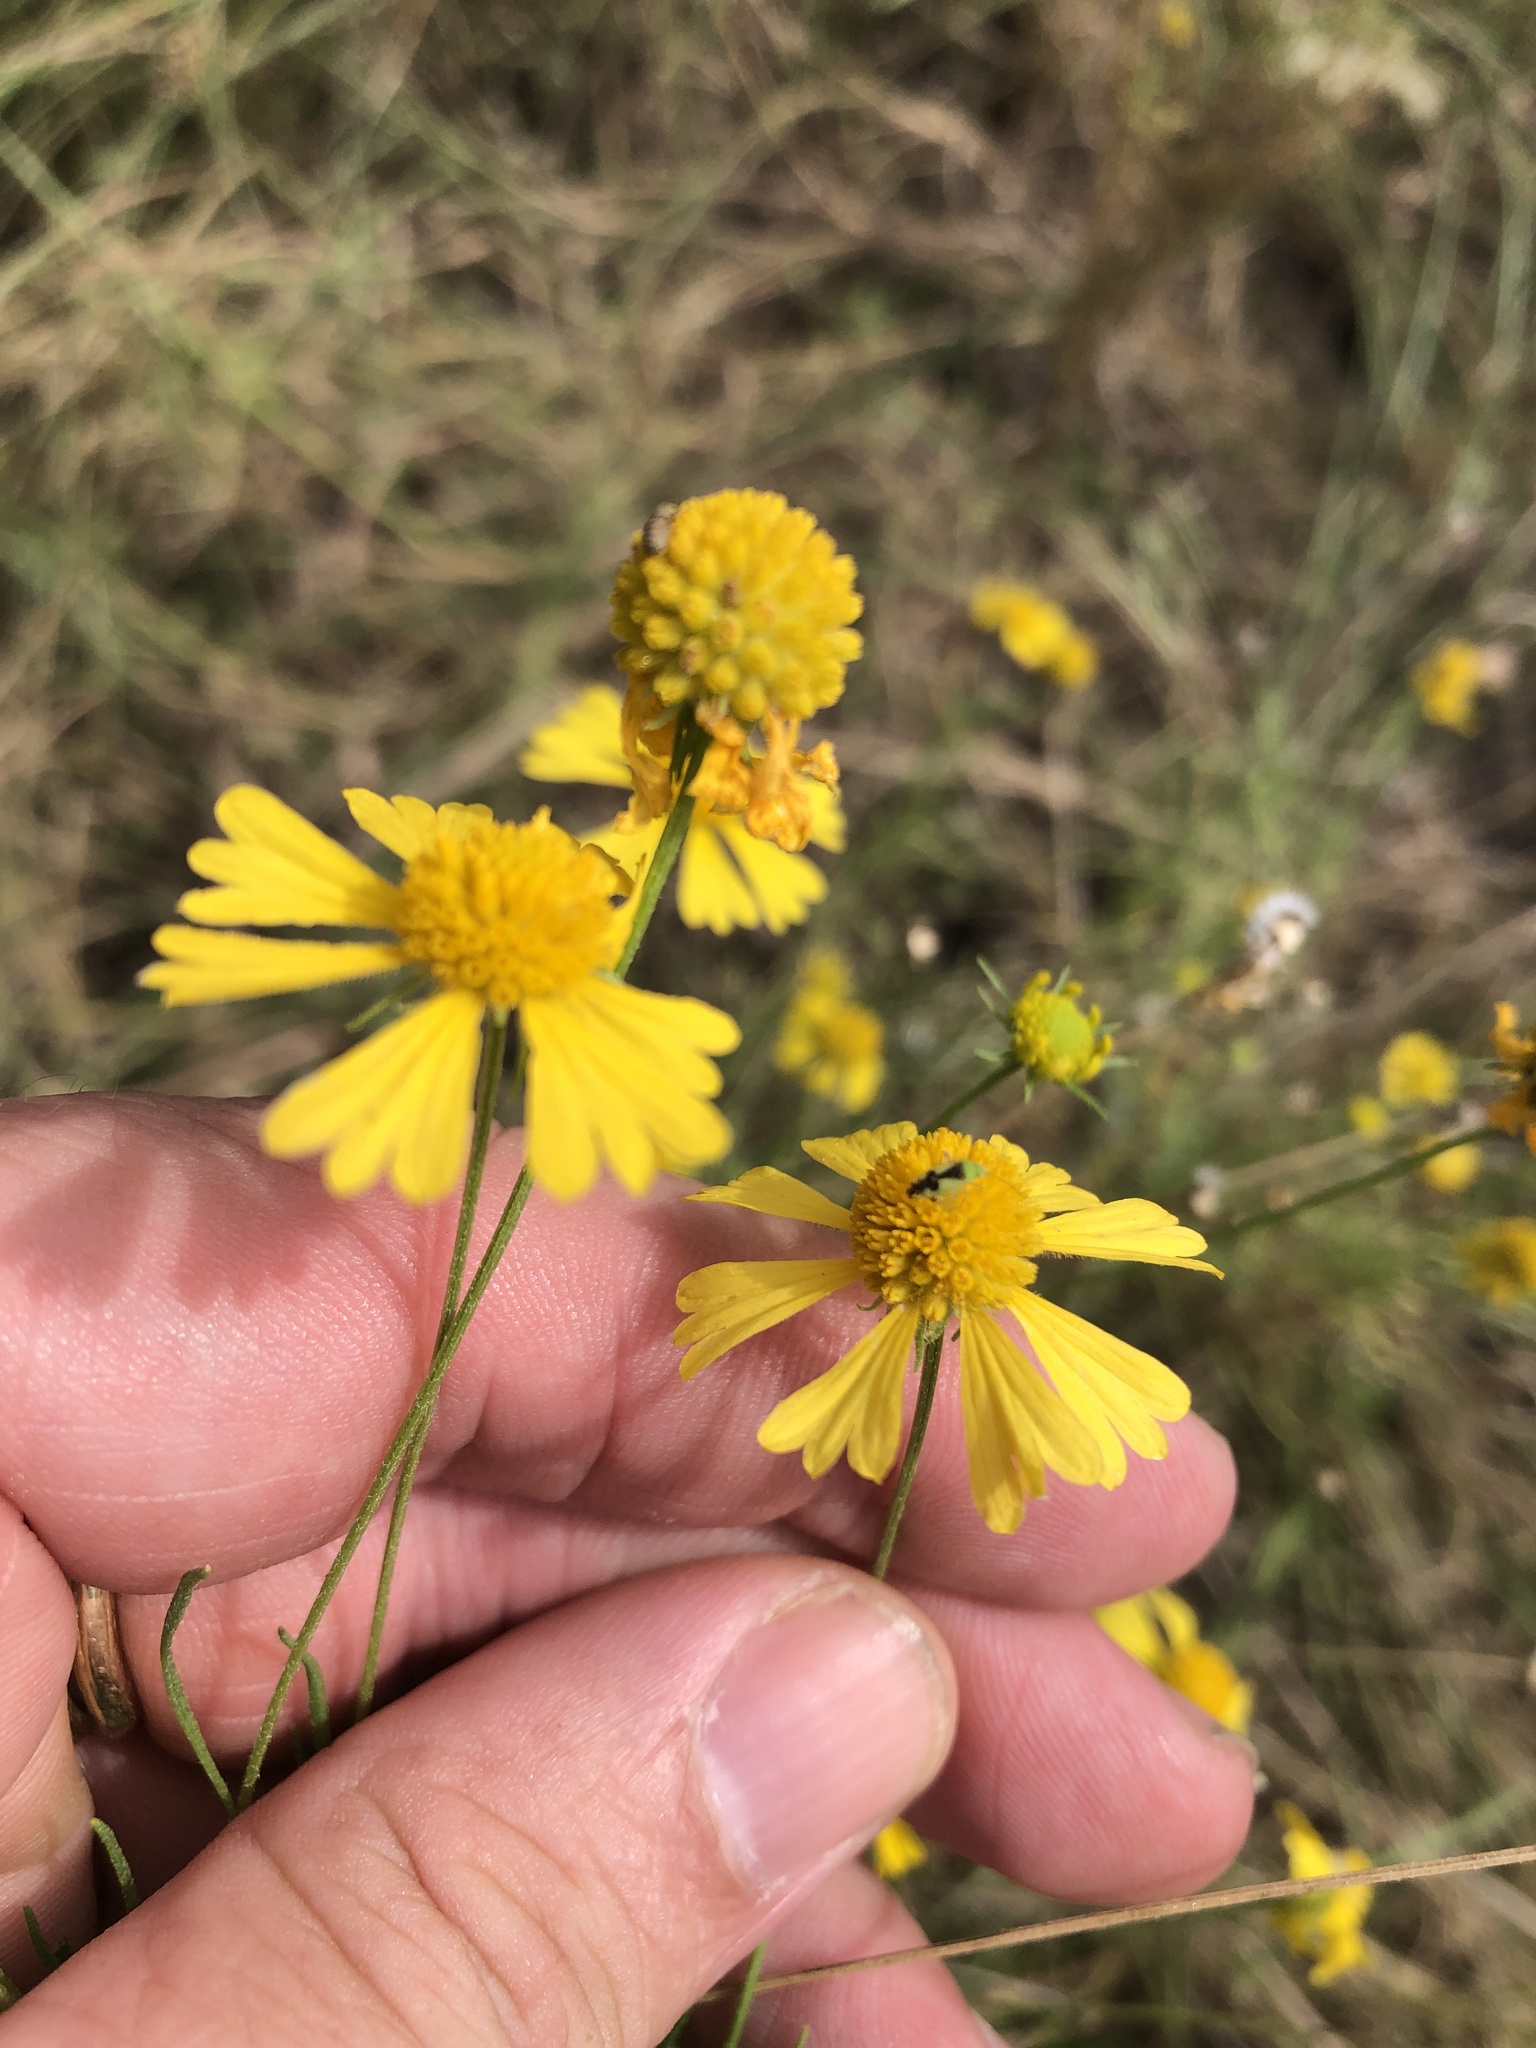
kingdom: Plantae
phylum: Tracheophyta
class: Magnoliopsida
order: Asterales
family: Asteraceae
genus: Helenium
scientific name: Helenium amarum
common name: Bitter sneezeweed
